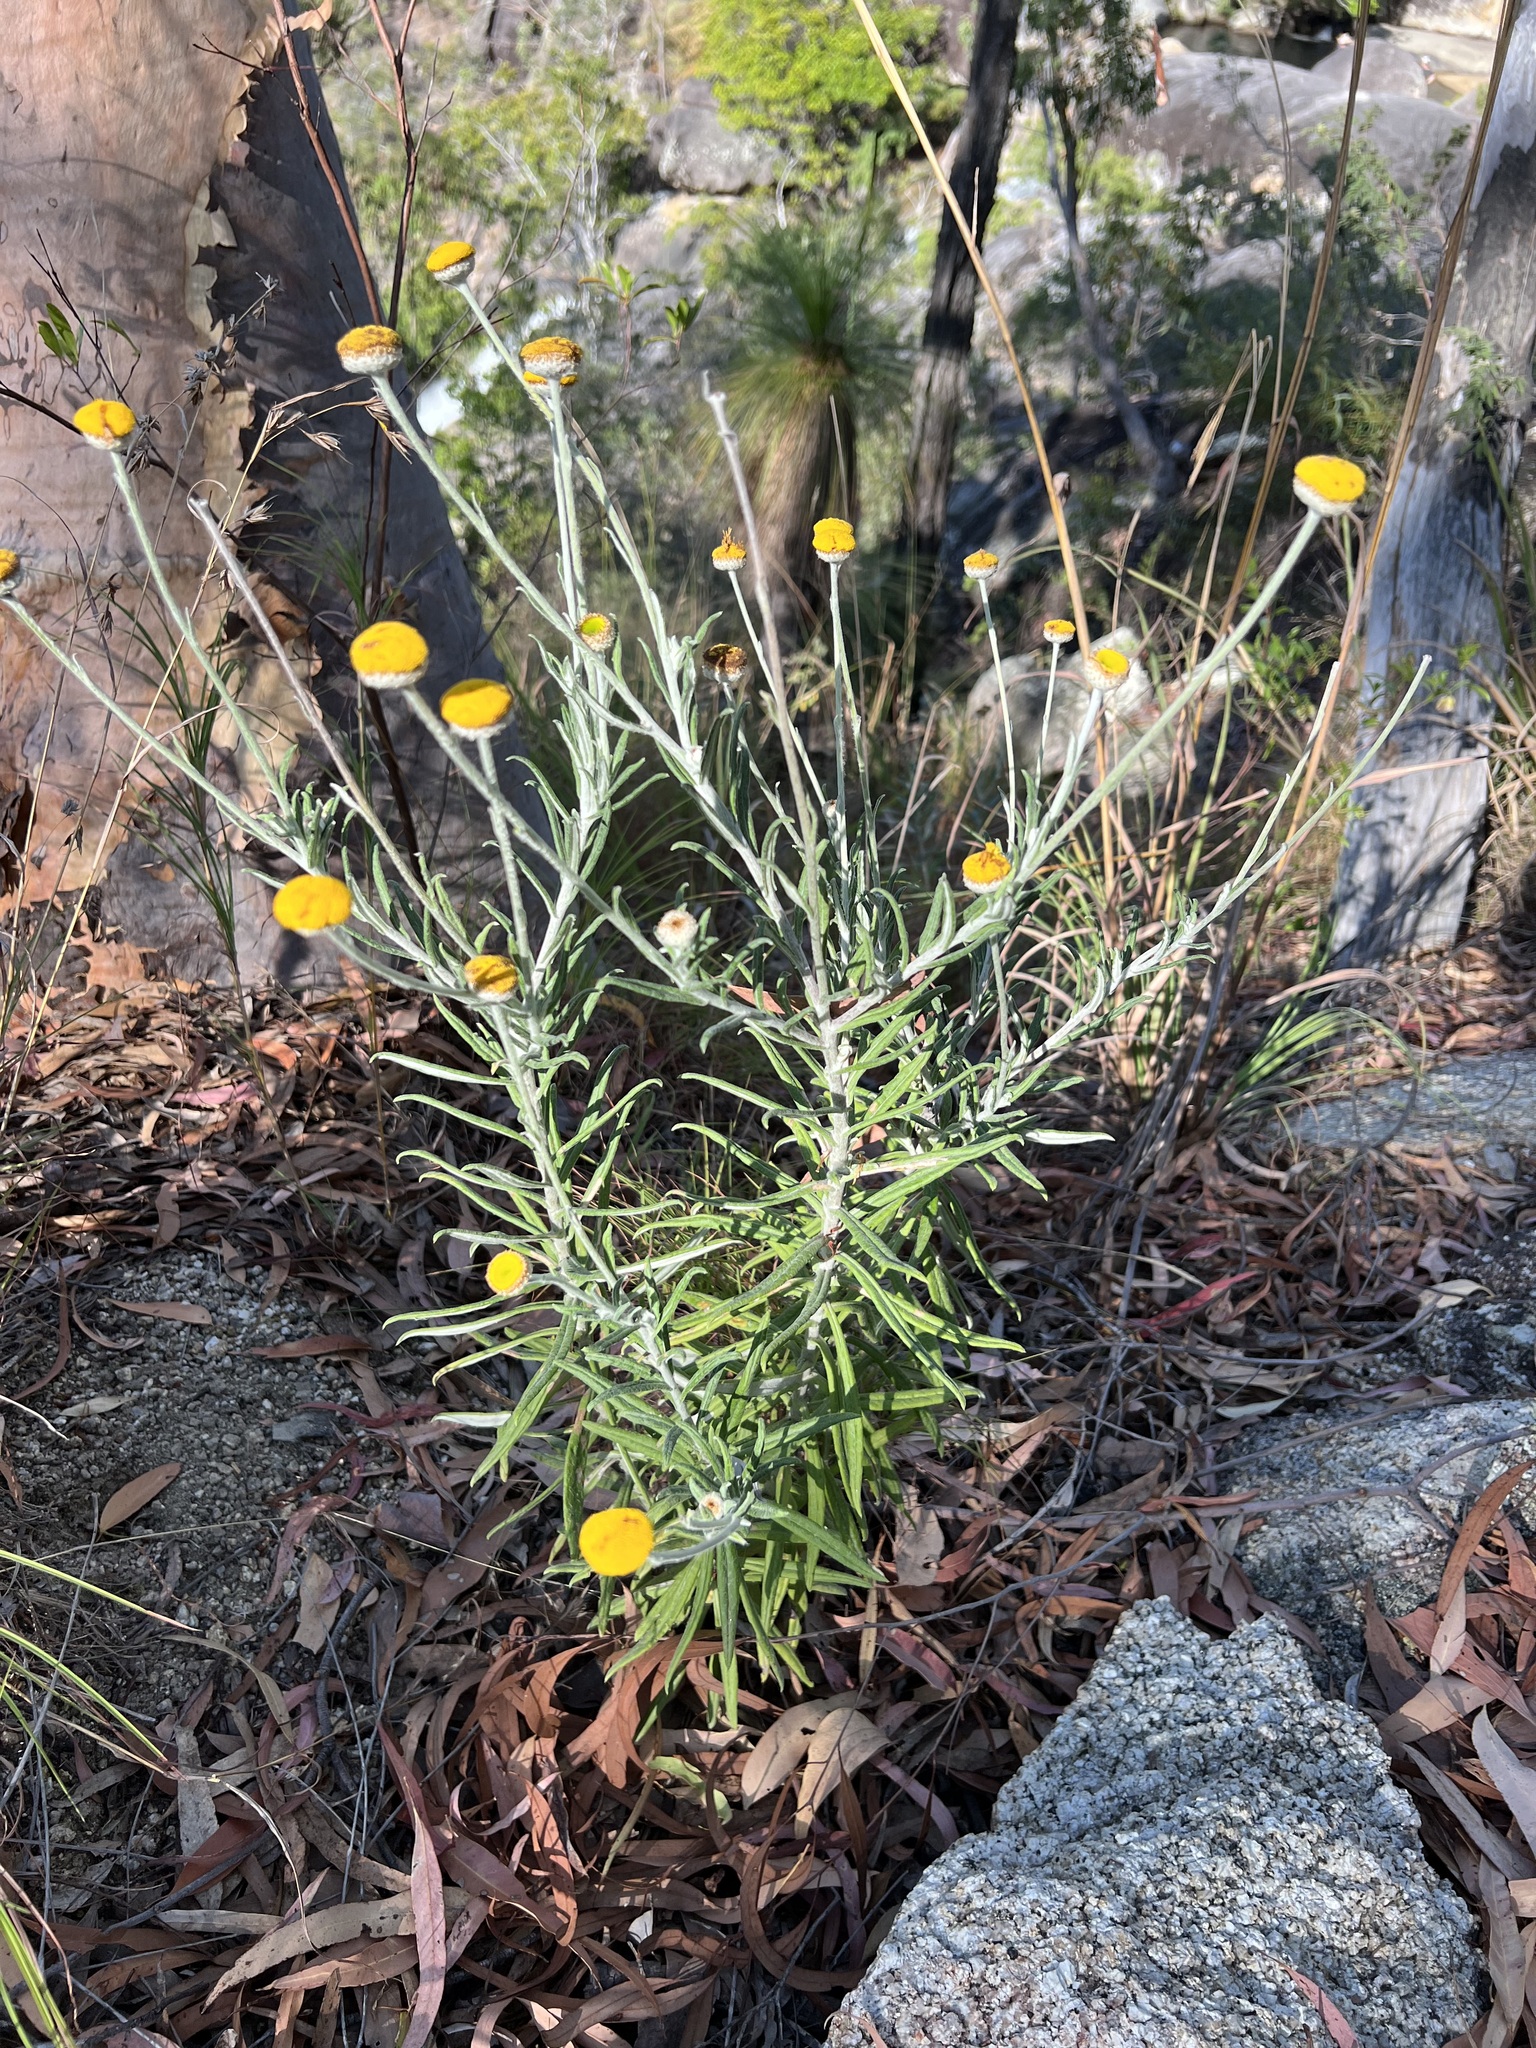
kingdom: Plantae
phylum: Tracheophyta
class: Magnoliopsida
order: Asterales
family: Asteraceae
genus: Coronidium
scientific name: Coronidium rupicola
